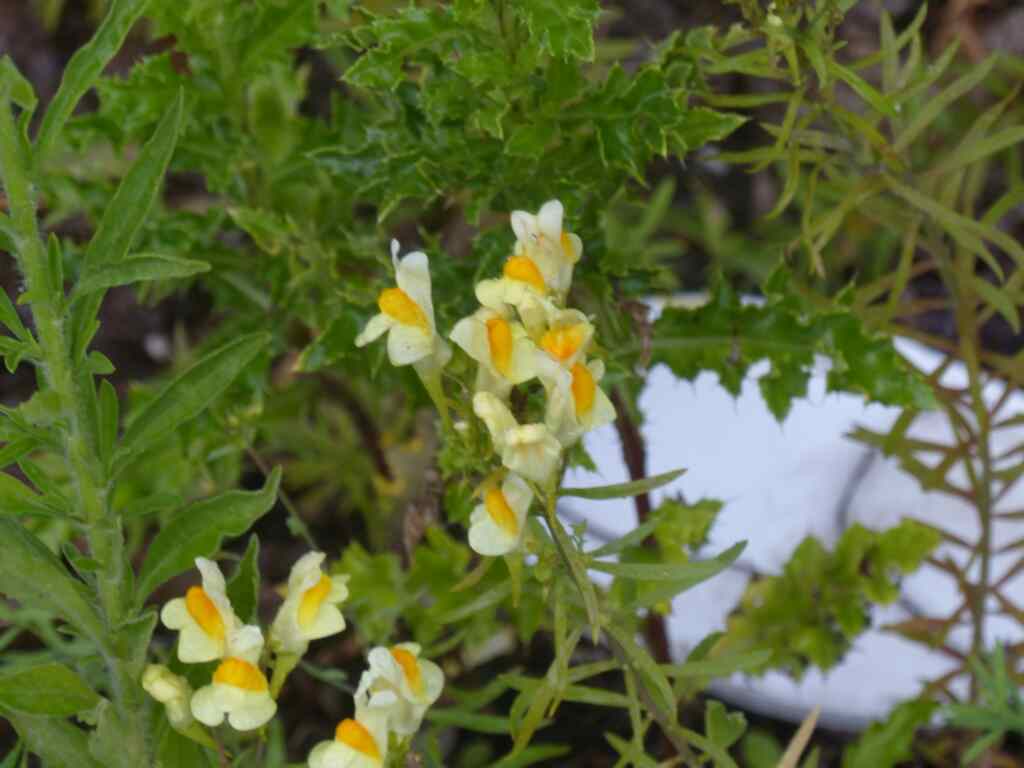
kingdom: Plantae
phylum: Tracheophyta
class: Magnoliopsida
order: Lamiales
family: Plantaginaceae
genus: Linaria
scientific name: Linaria vulgaris
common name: Butter and eggs
